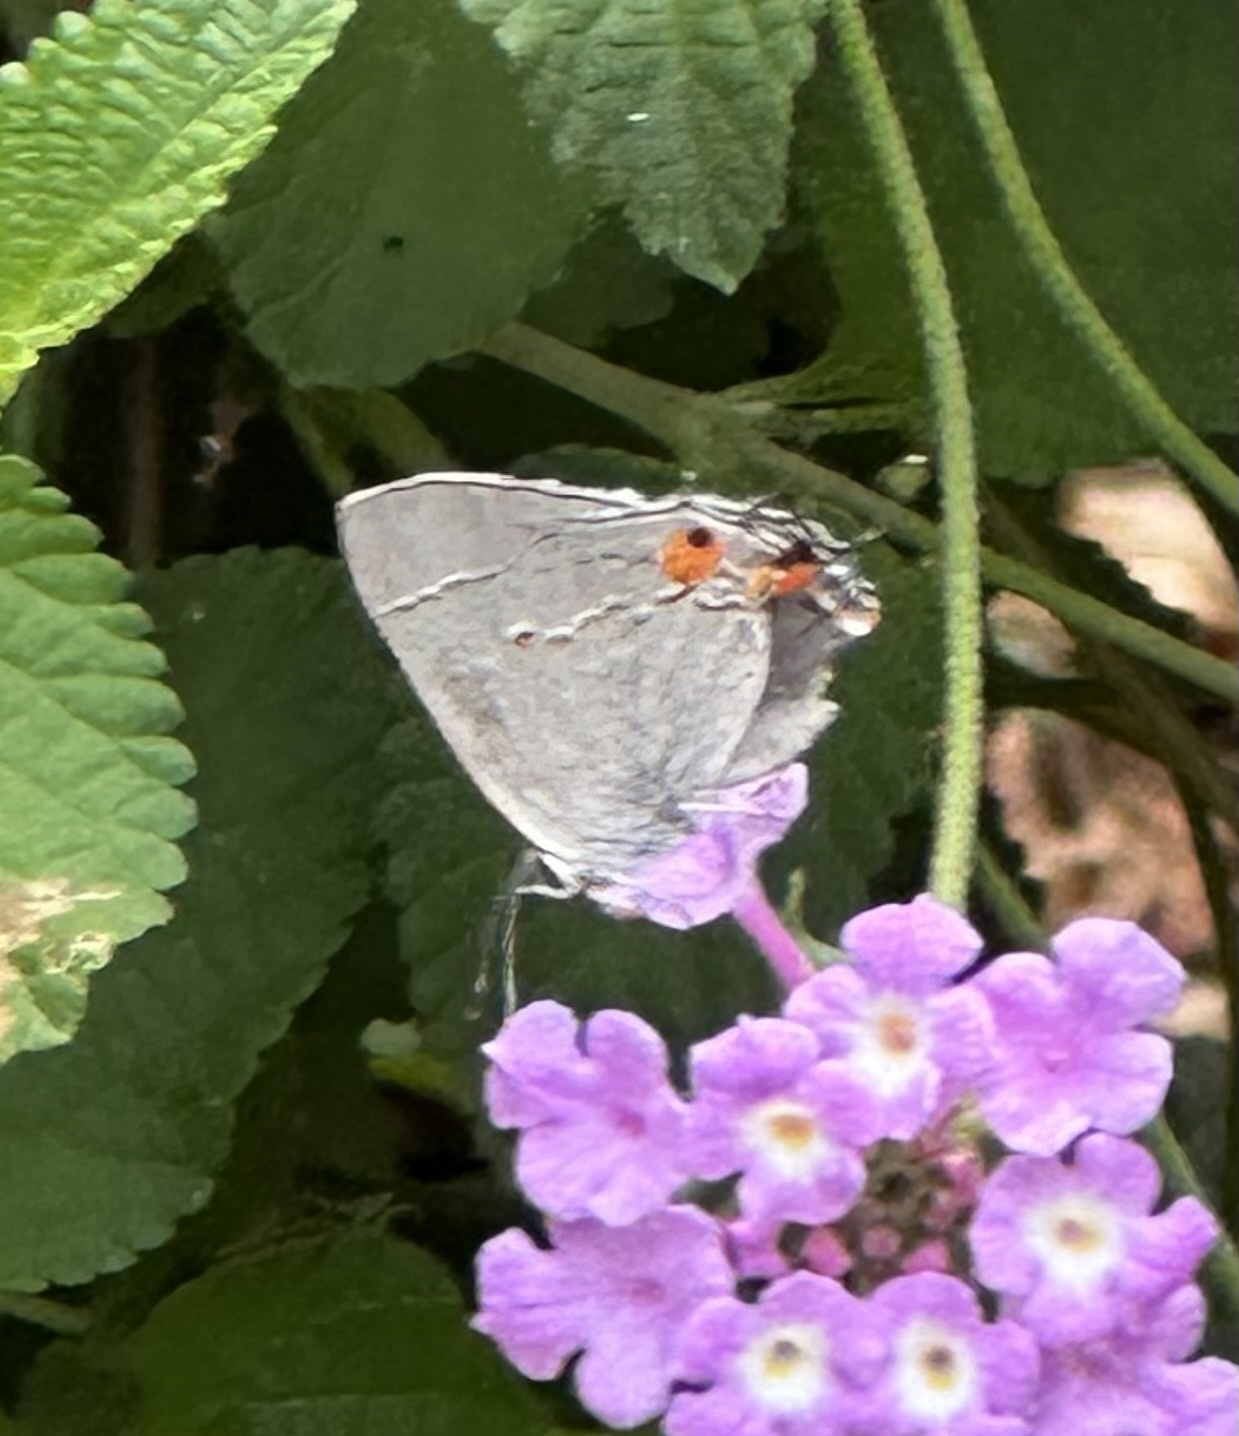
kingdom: Animalia
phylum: Arthropoda
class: Insecta
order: Lepidoptera
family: Lycaenidae
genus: Strymon
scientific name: Strymon melinus
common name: Gray hairstreak
